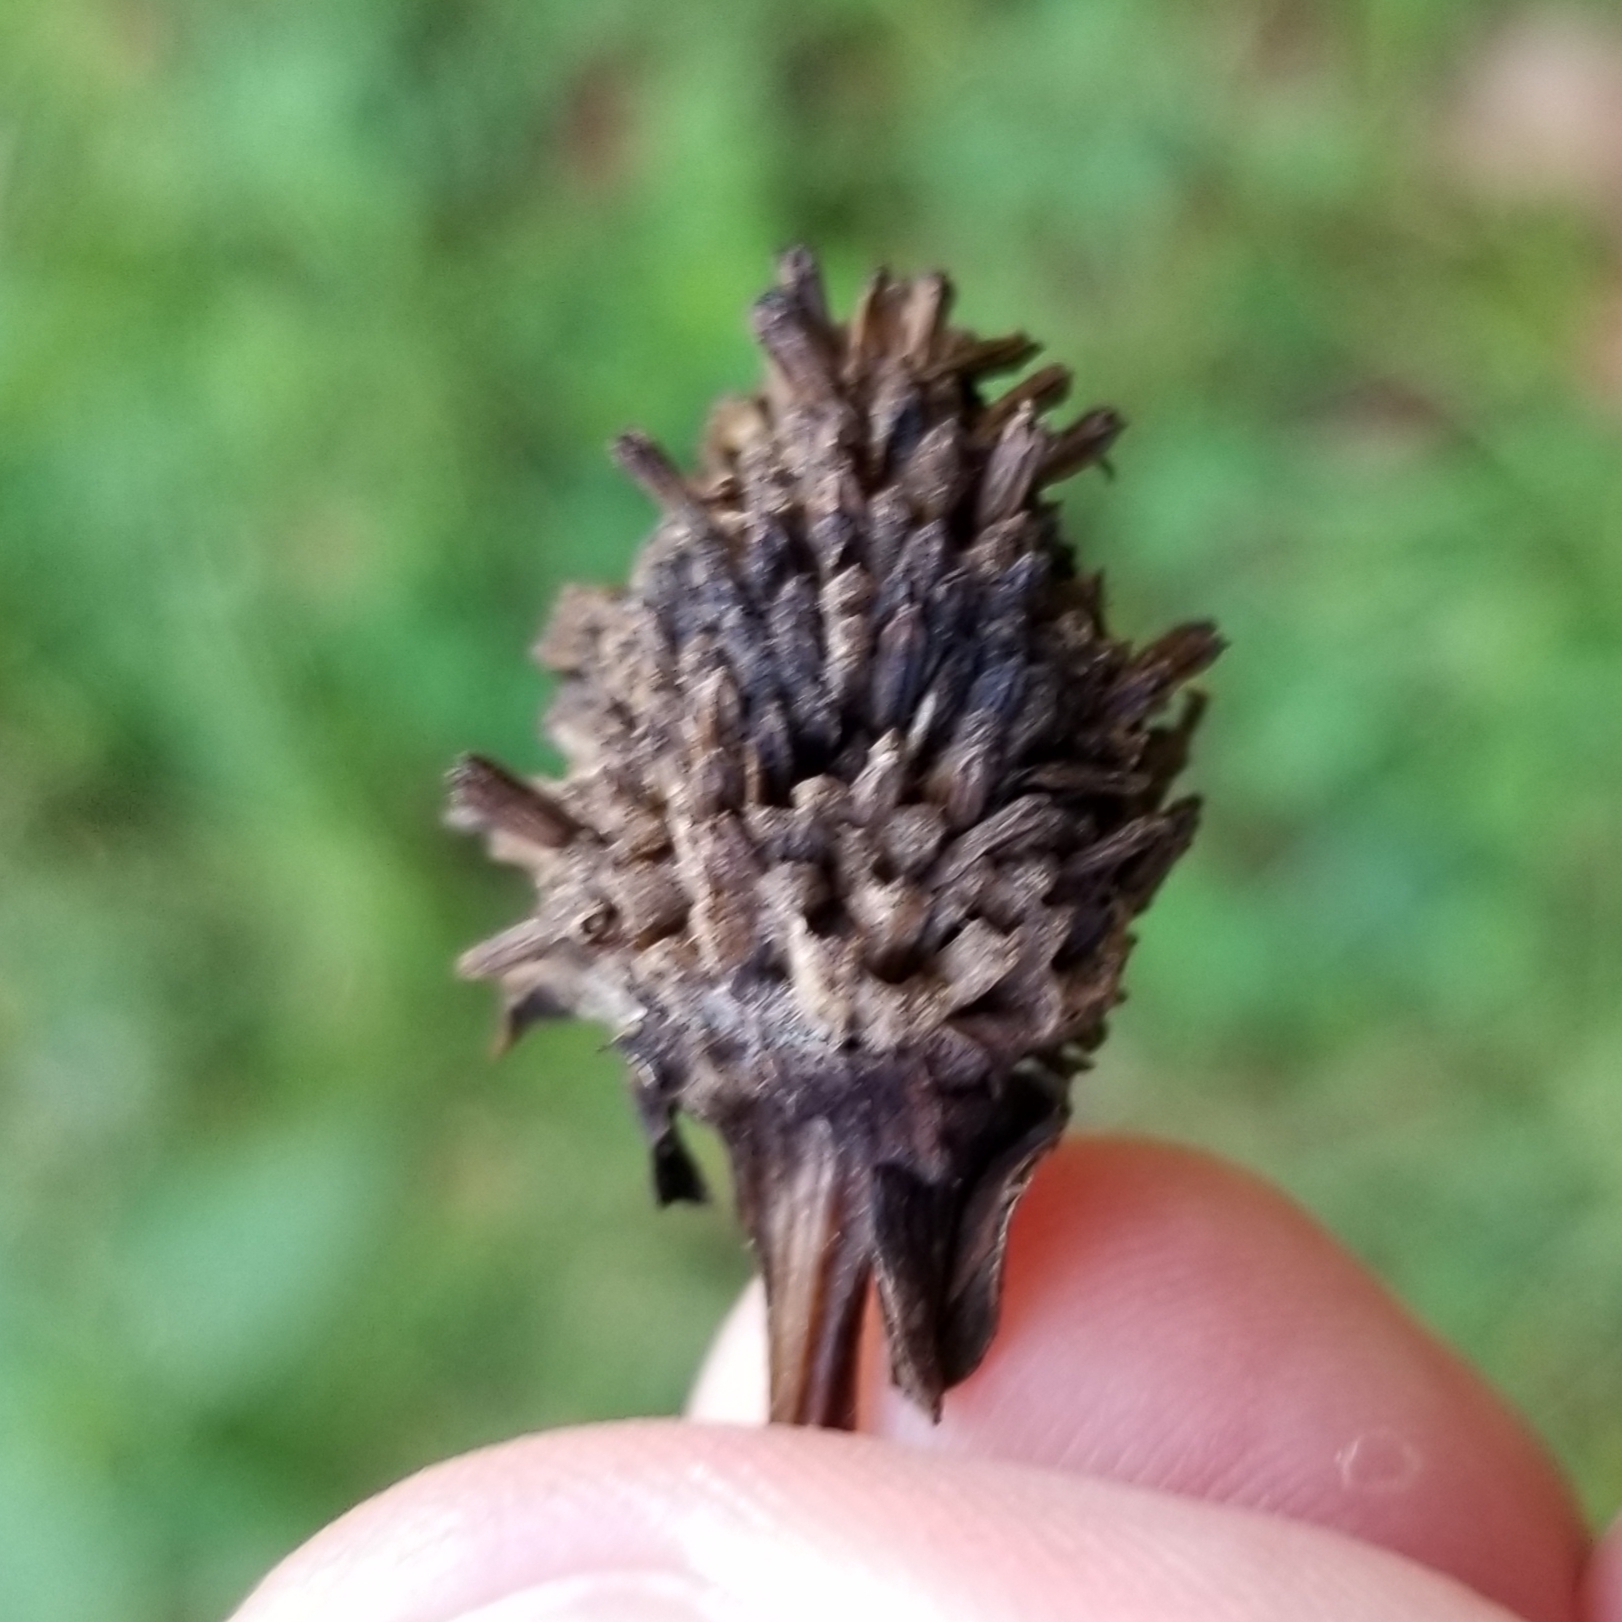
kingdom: Plantae
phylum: Tracheophyta
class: Magnoliopsida
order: Asterales
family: Asteraceae
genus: Rudbeckia
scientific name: Rudbeckia laciniata
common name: Coneflower
